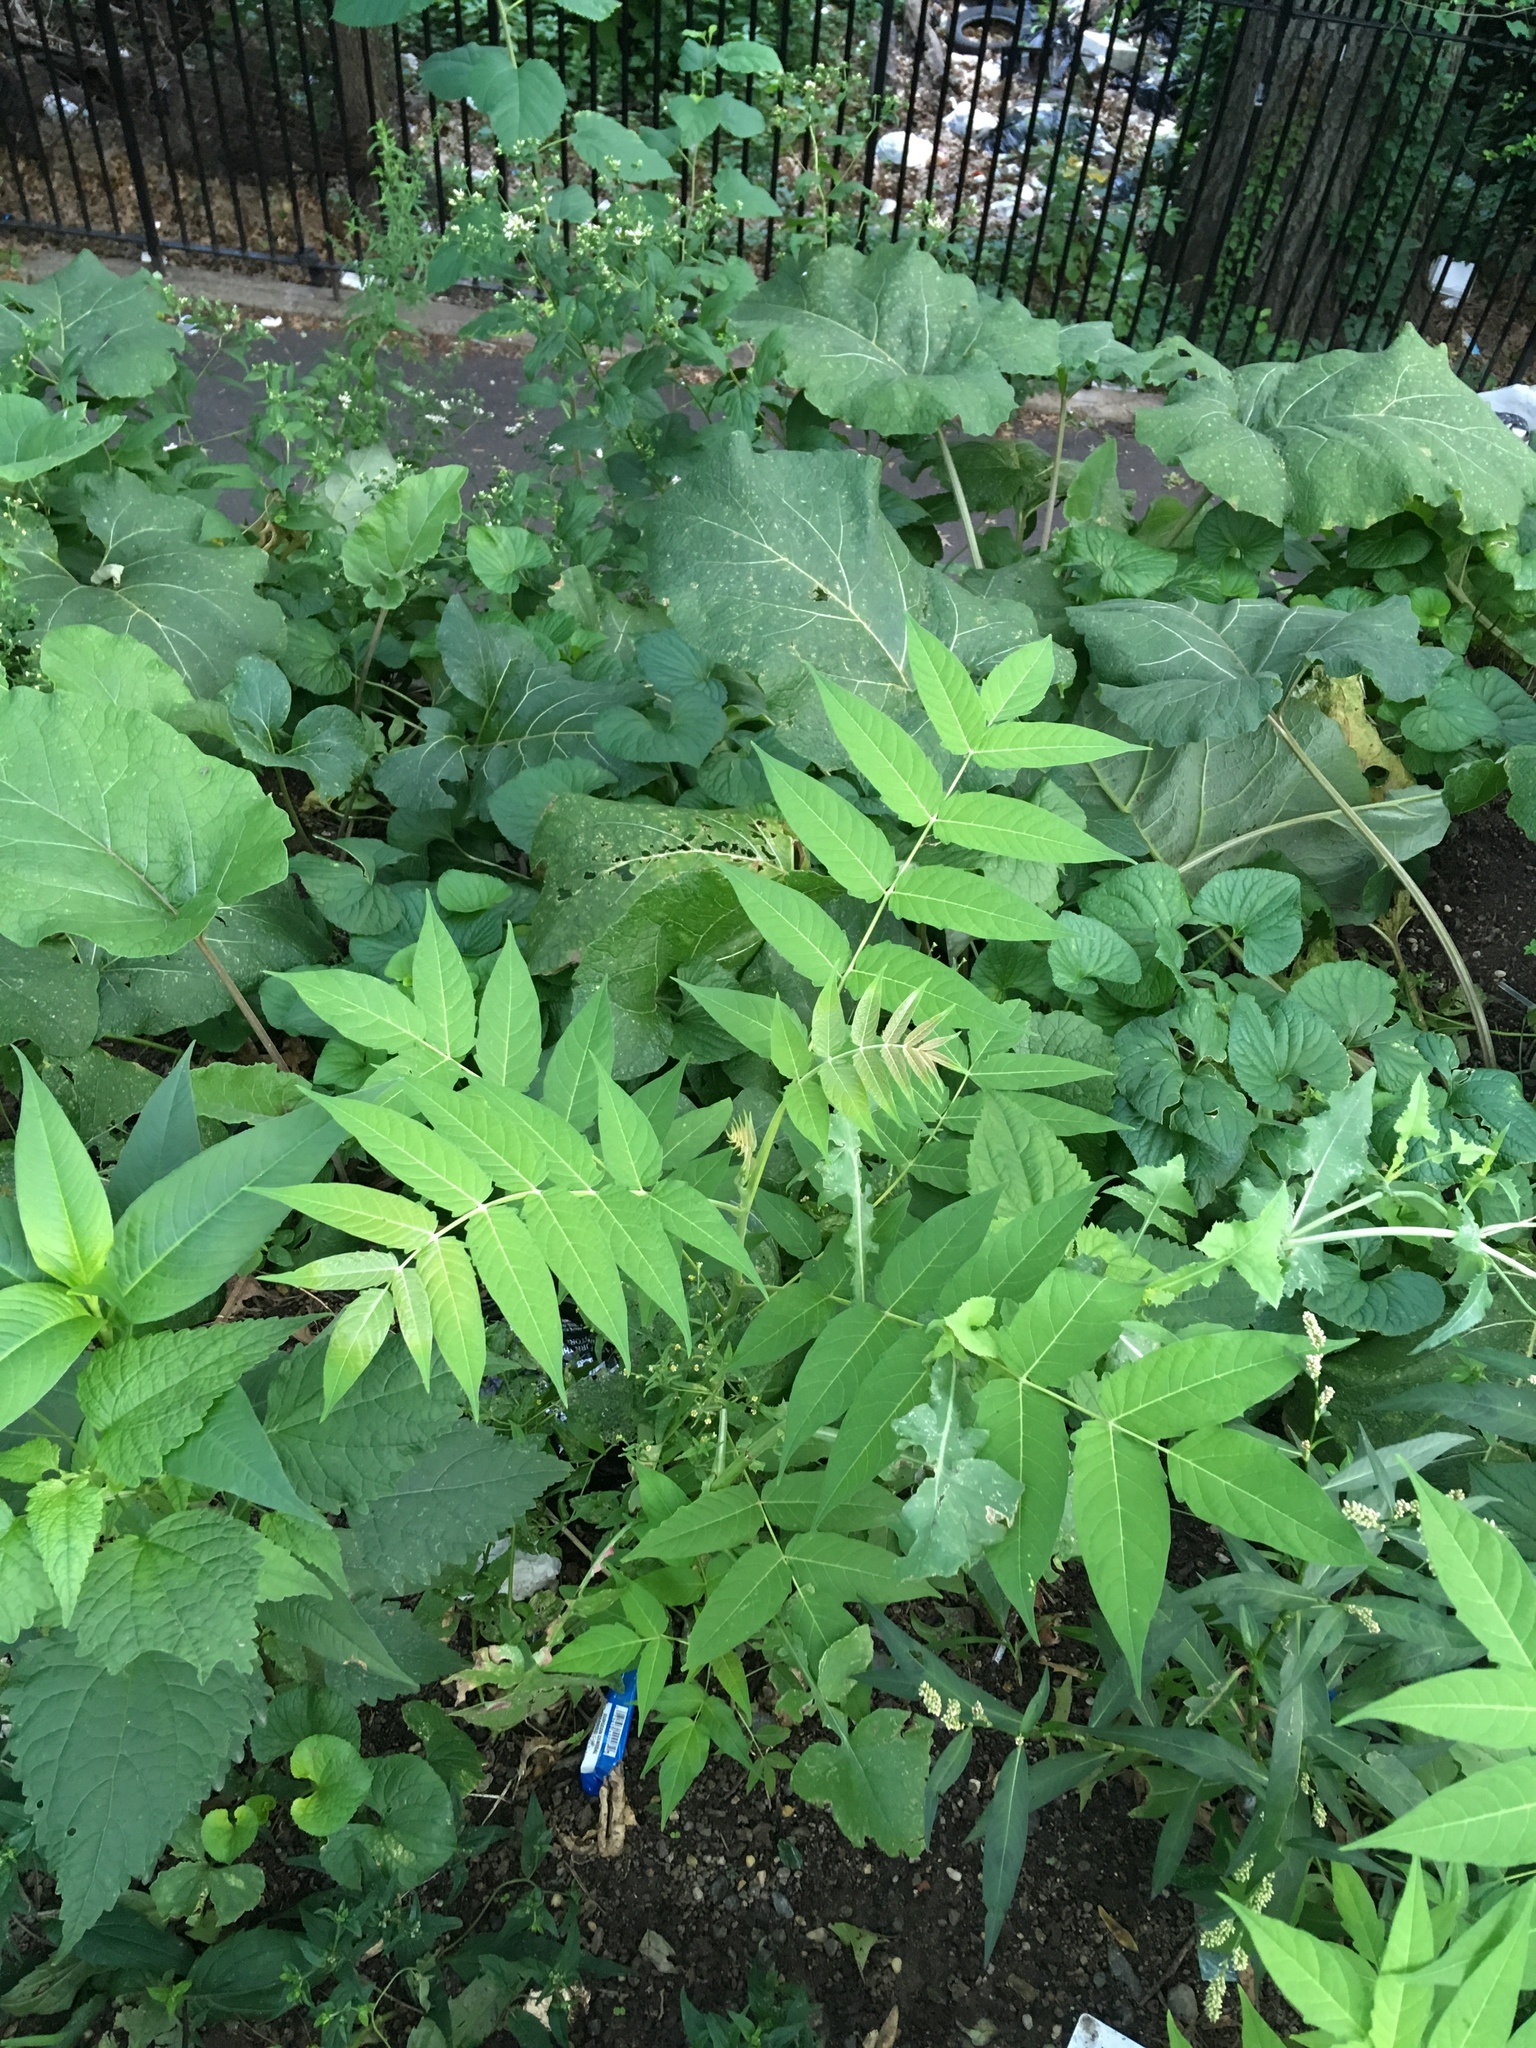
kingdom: Plantae
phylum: Tracheophyta
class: Magnoliopsida
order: Sapindales
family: Simaroubaceae
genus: Ailanthus
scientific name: Ailanthus altissima
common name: Tree-of-heaven
